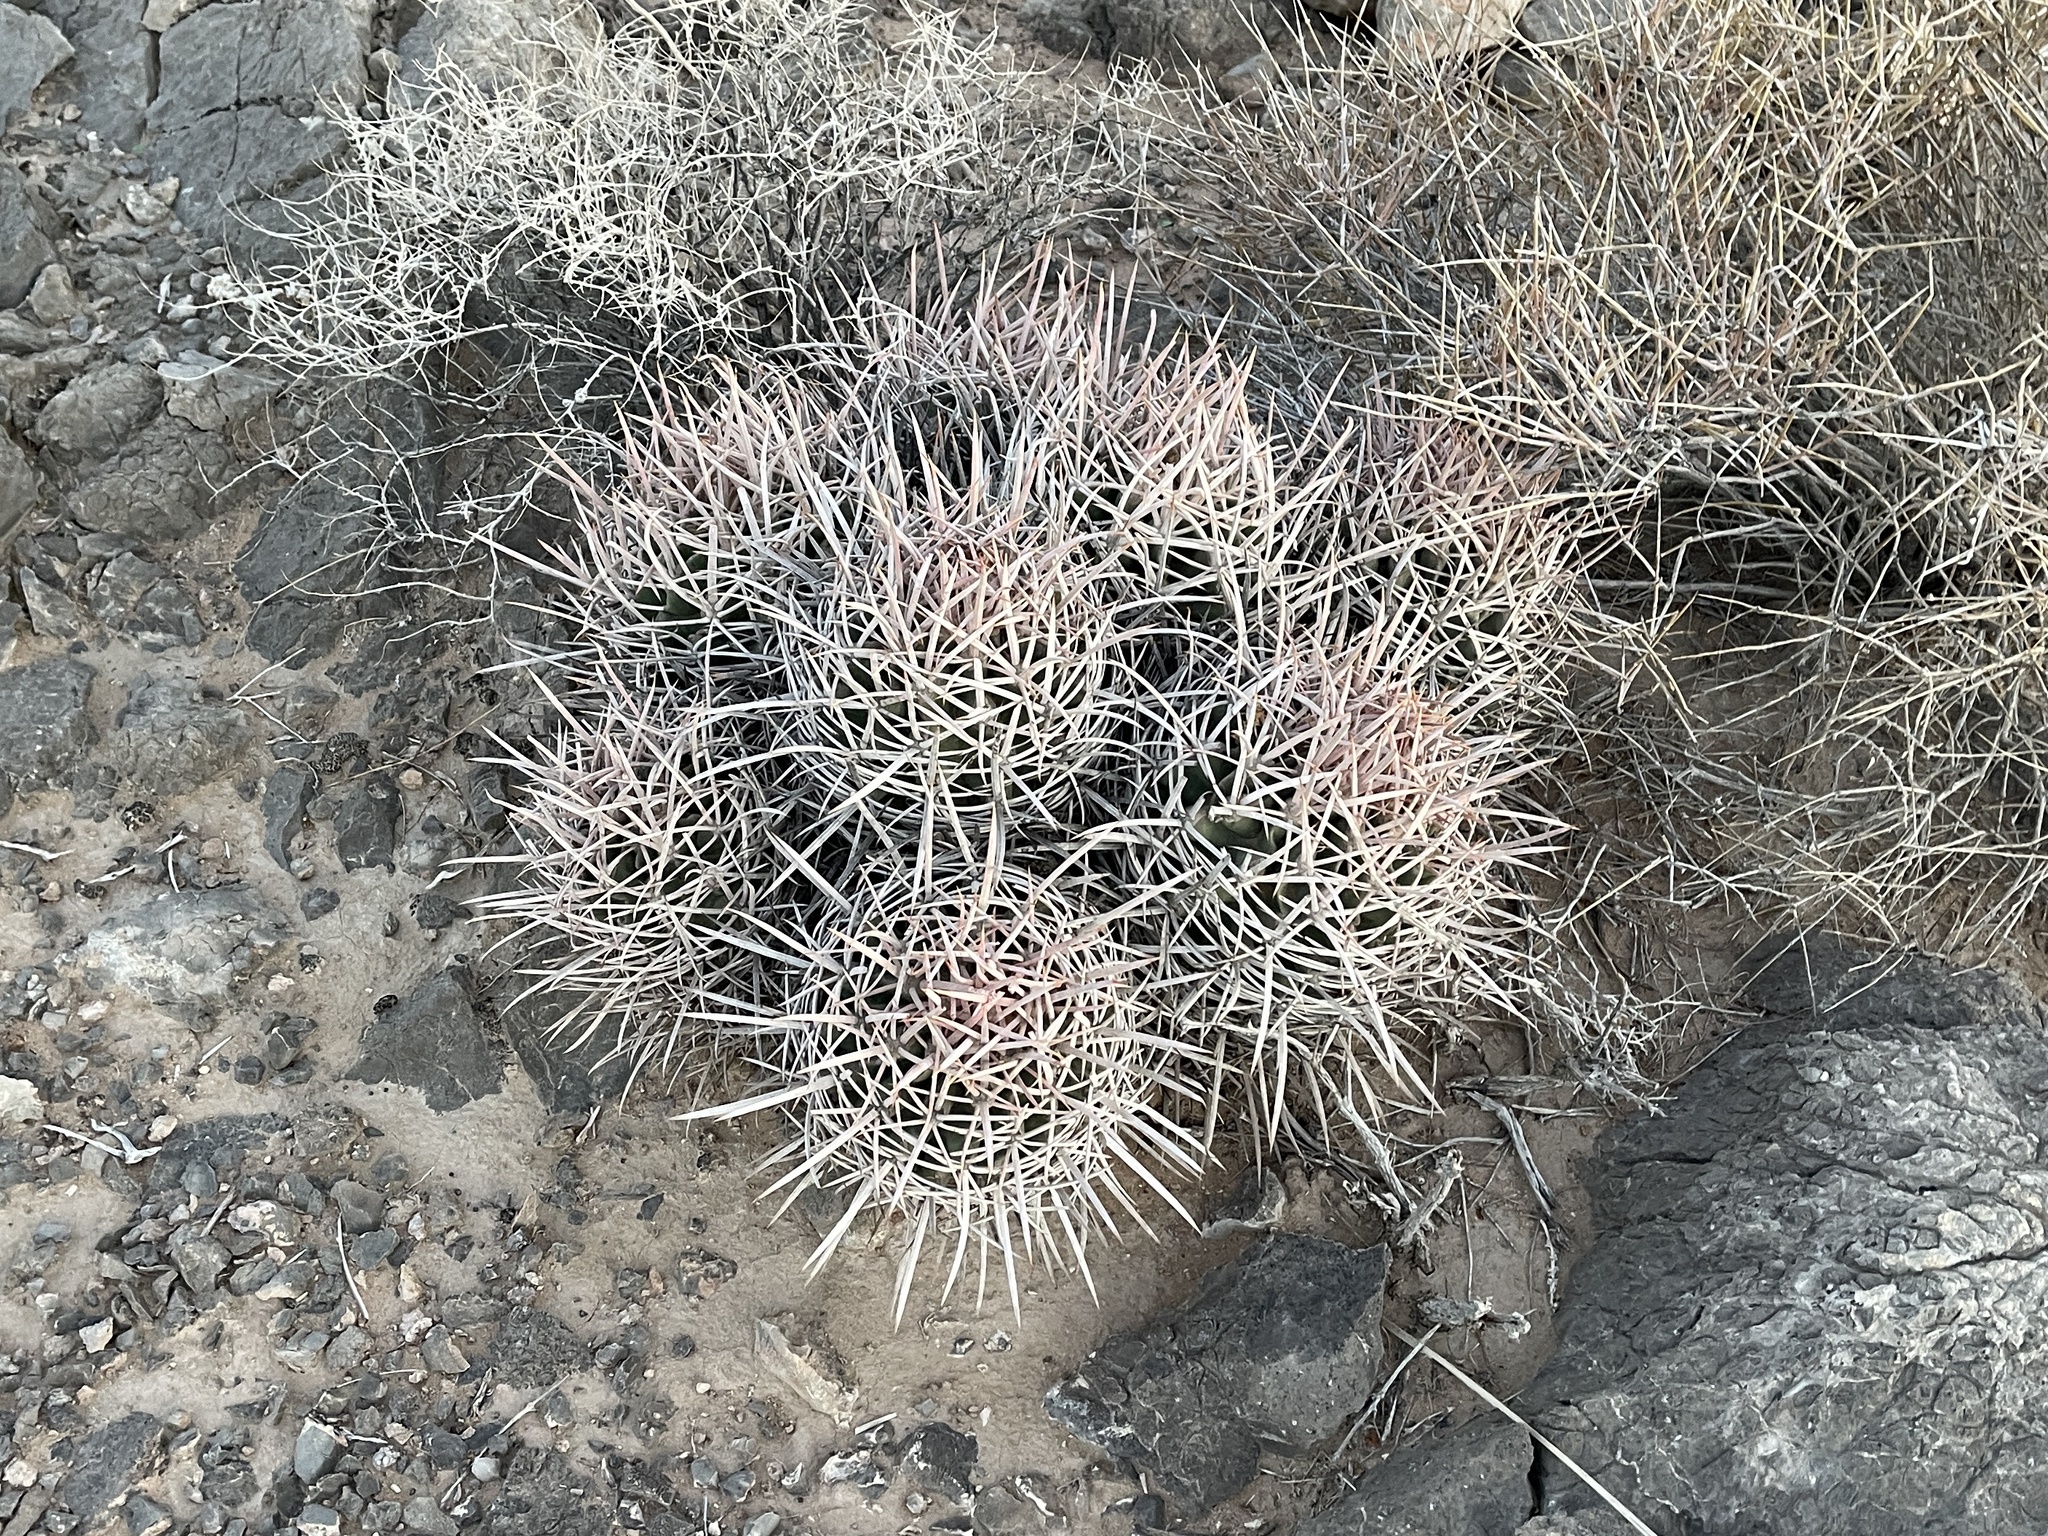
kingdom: Plantae
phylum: Tracheophyta
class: Magnoliopsida
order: Caryophyllales
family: Cactaceae
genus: Echinocactus
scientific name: Echinocactus polycephalus
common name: Cottontop cactus
